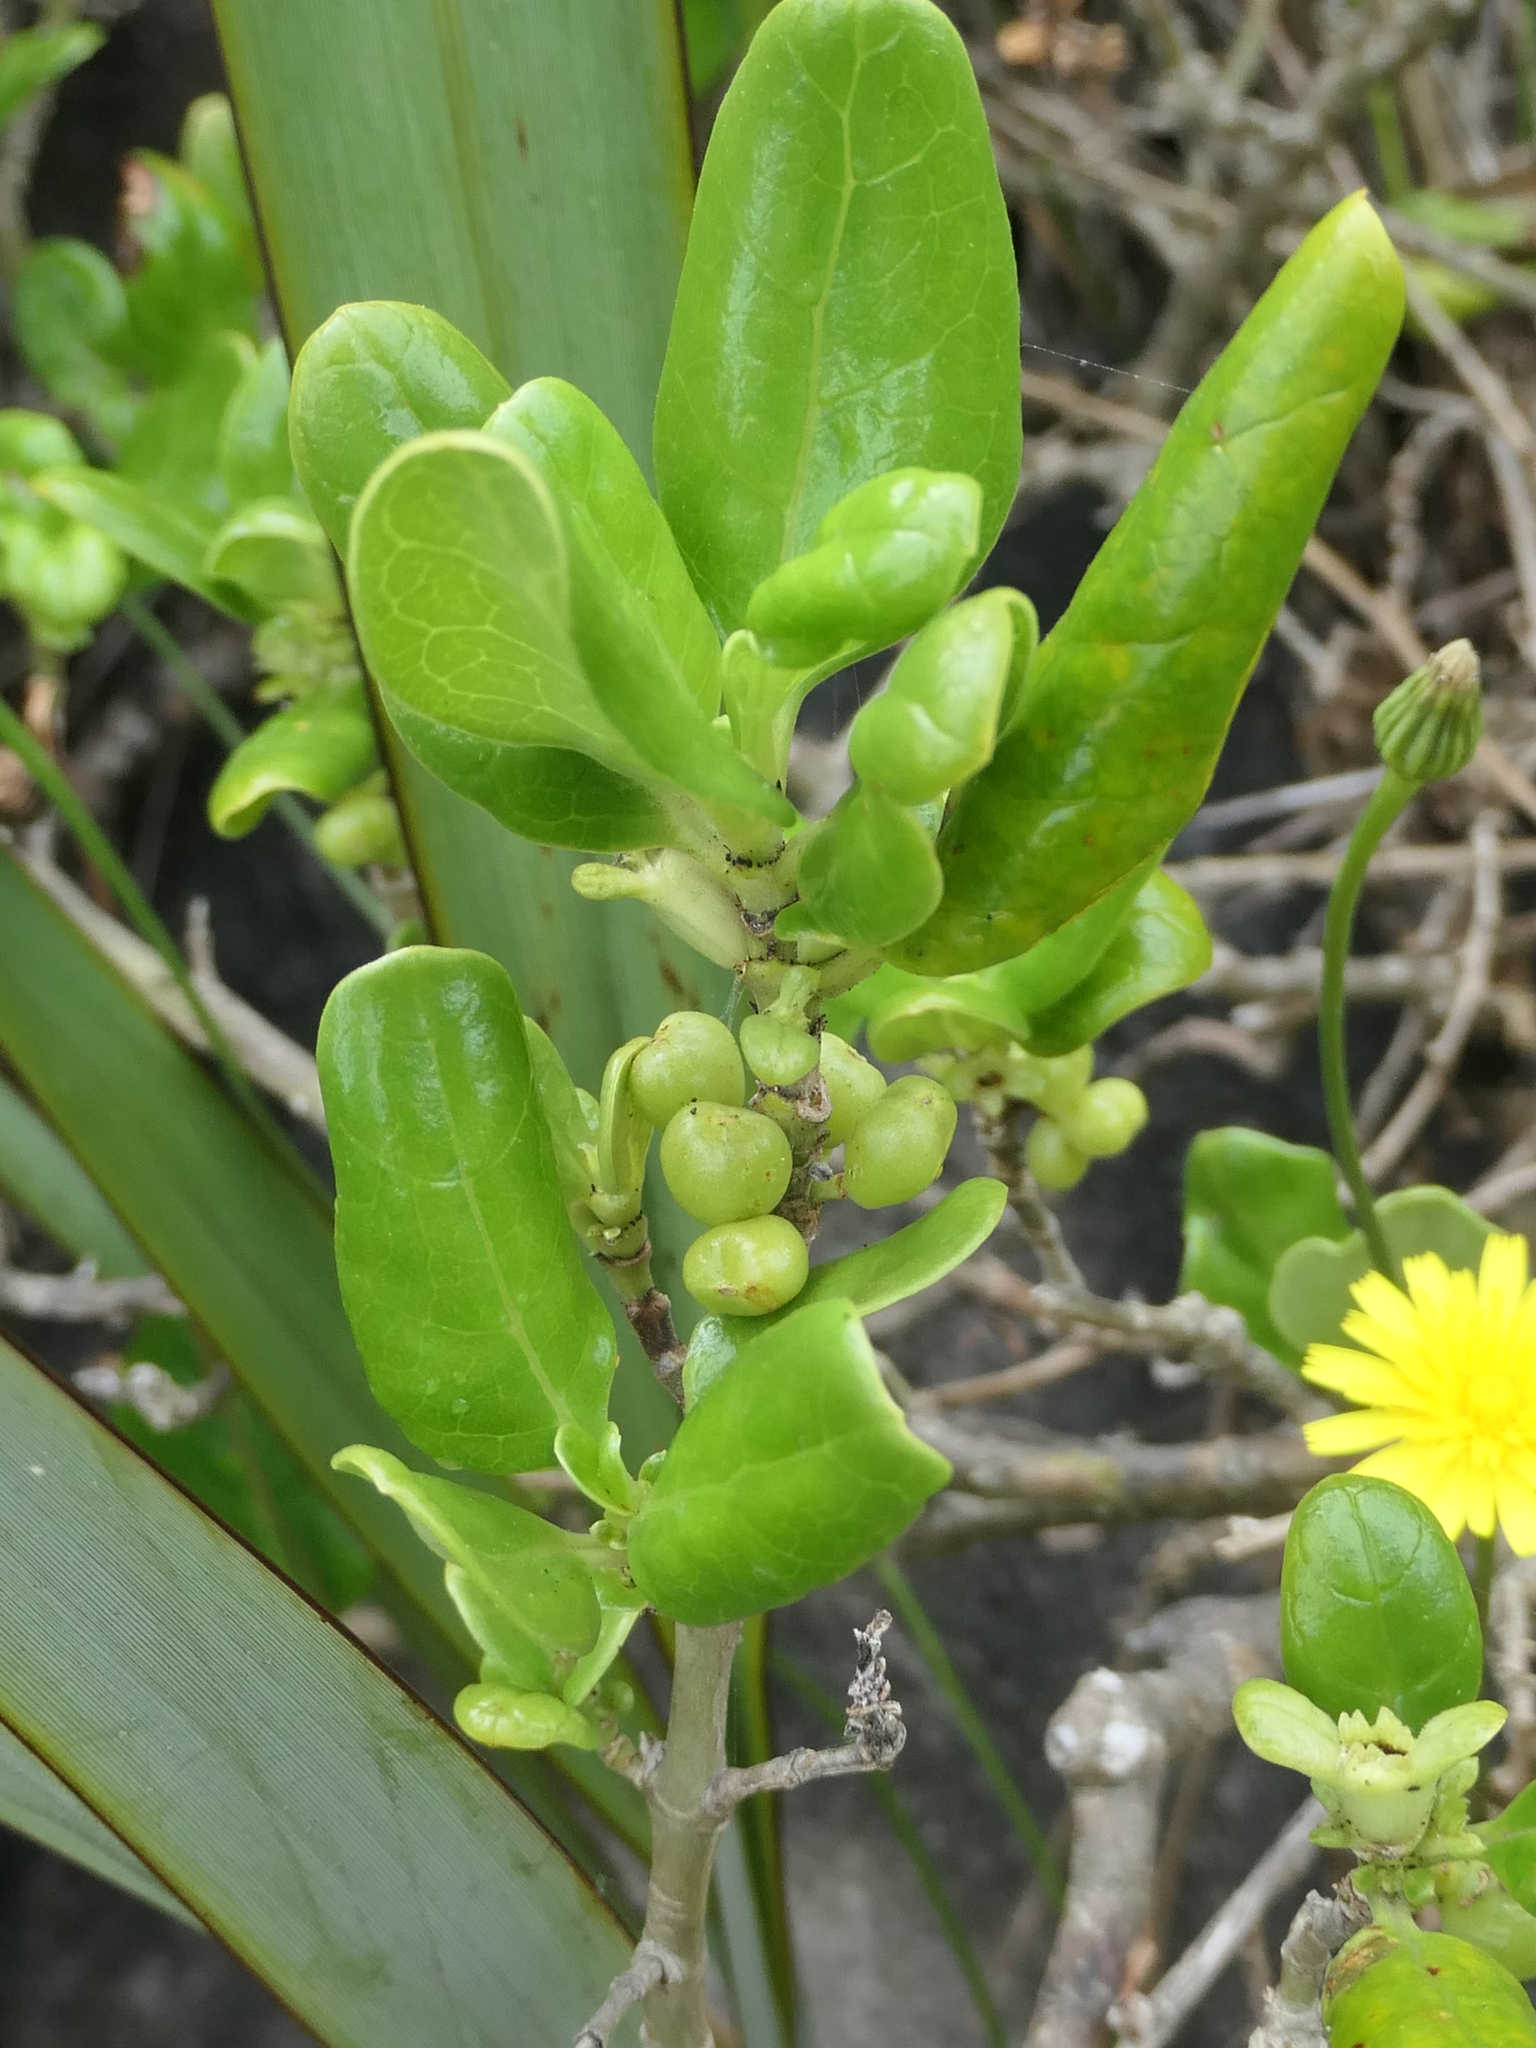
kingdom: Plantae
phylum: Tracheophyta
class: Magnoliopsida
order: Gentianales
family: Rubiaceae
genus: Coprosma
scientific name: Coprosma repens
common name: Tree bedstraw
